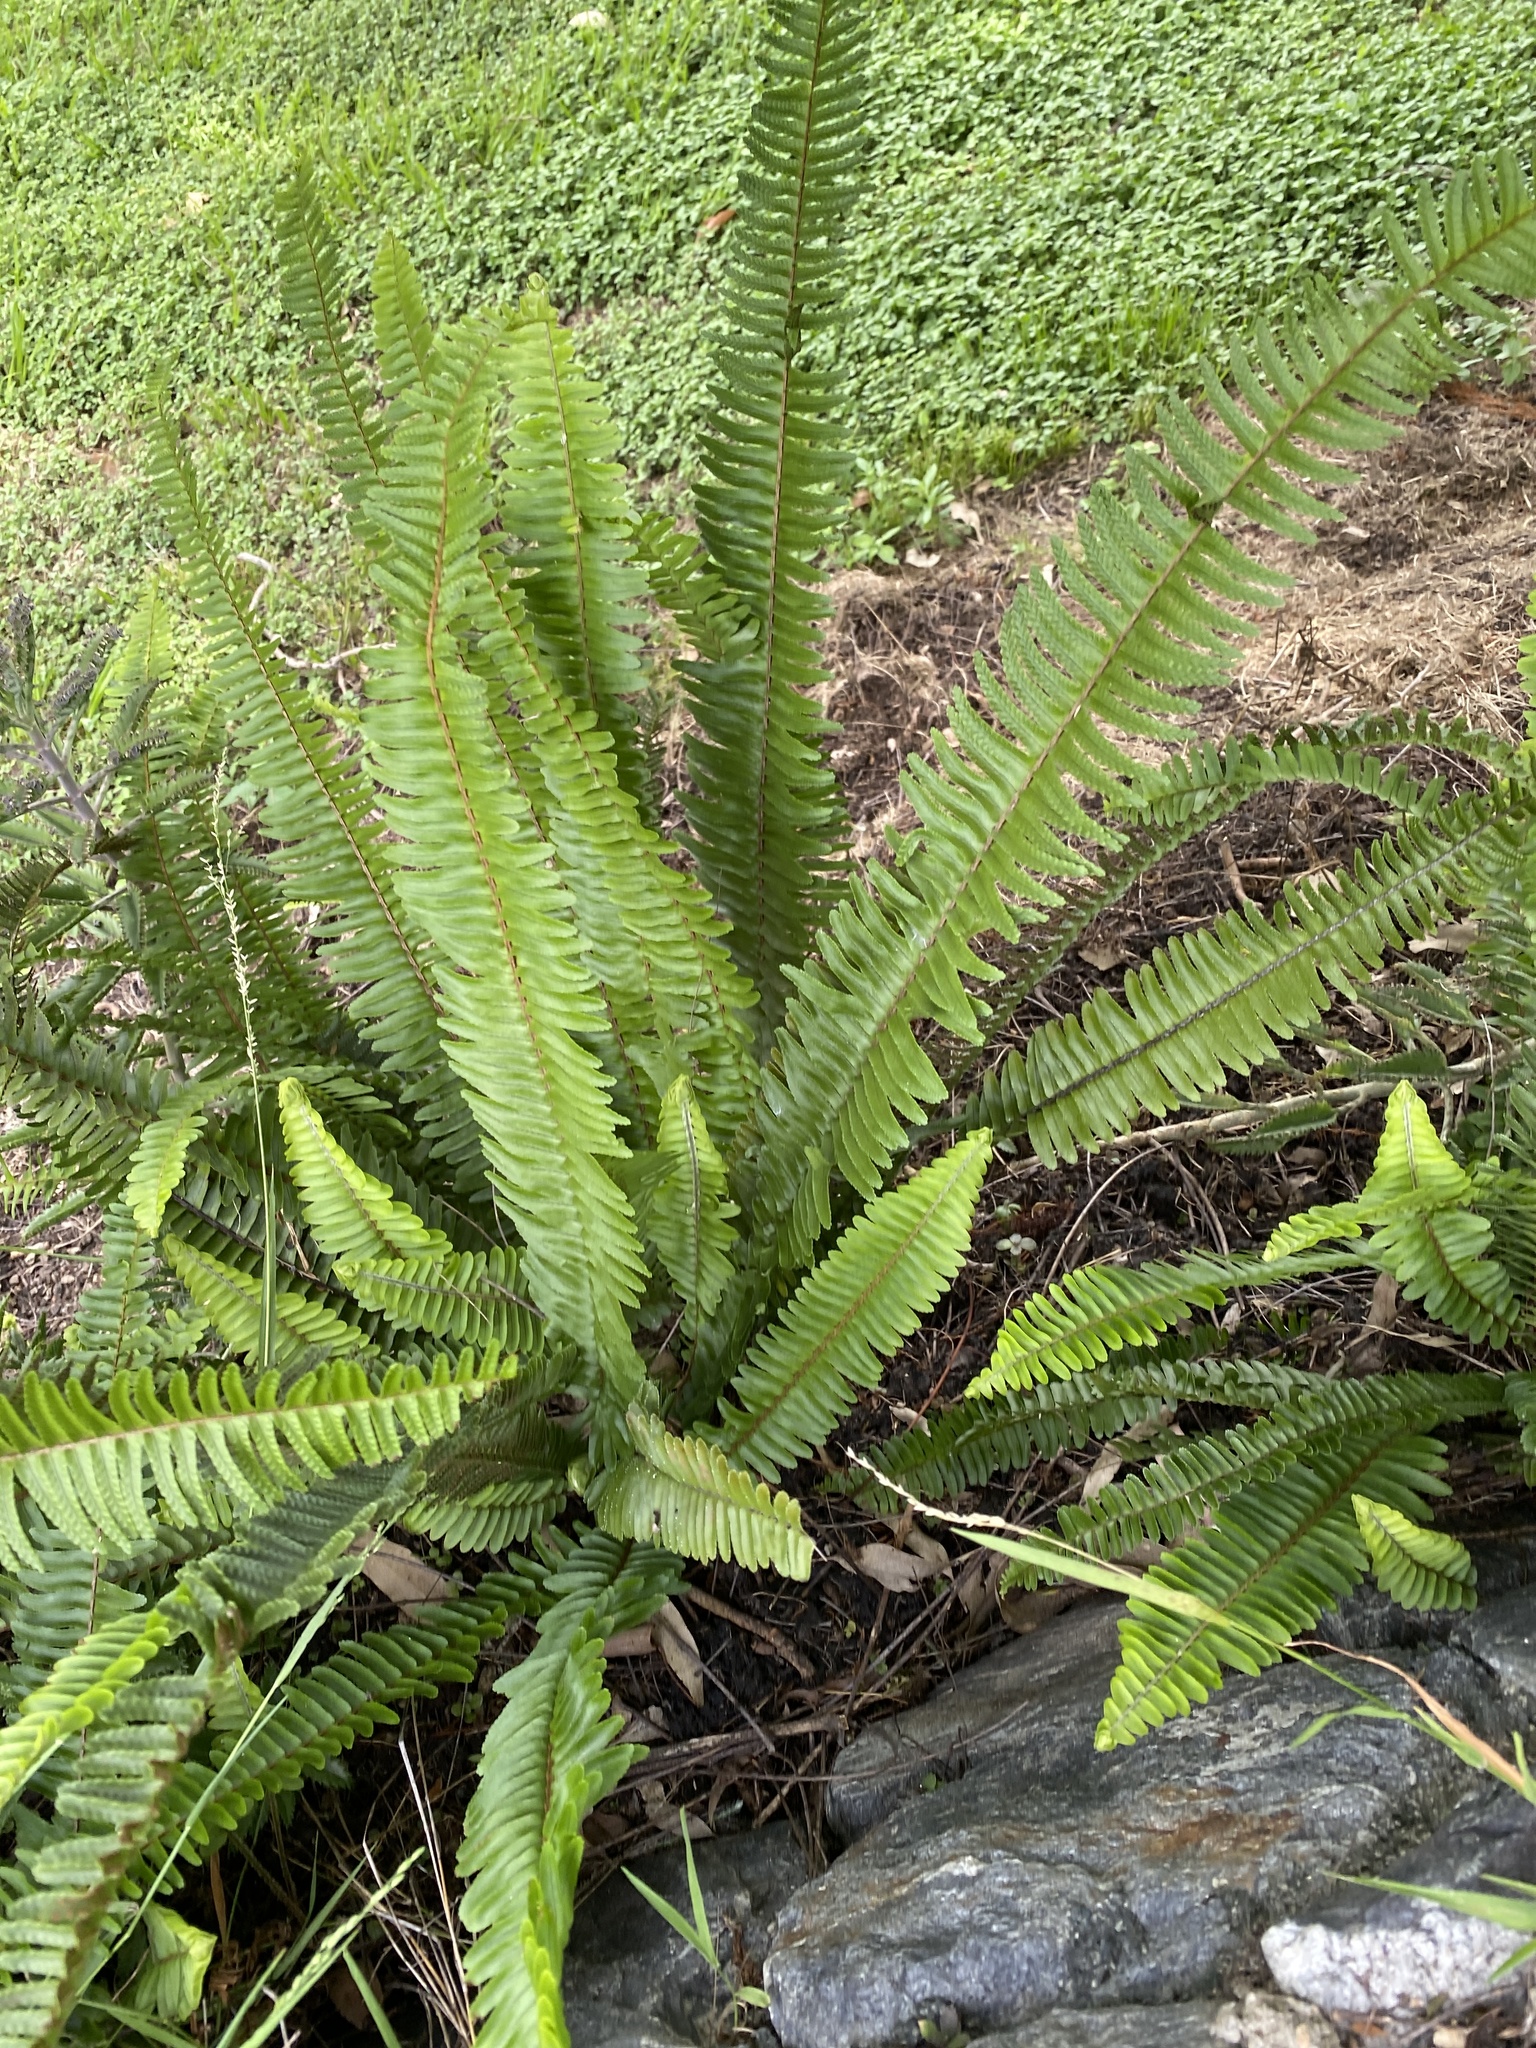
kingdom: Plantae
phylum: Tracheophyta
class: Polypodiopsida
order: Polypodiales
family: Nephrolepidaceae
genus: Nephrolepis
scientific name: Nephrolepis cordifolia
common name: Narrow swordfern
